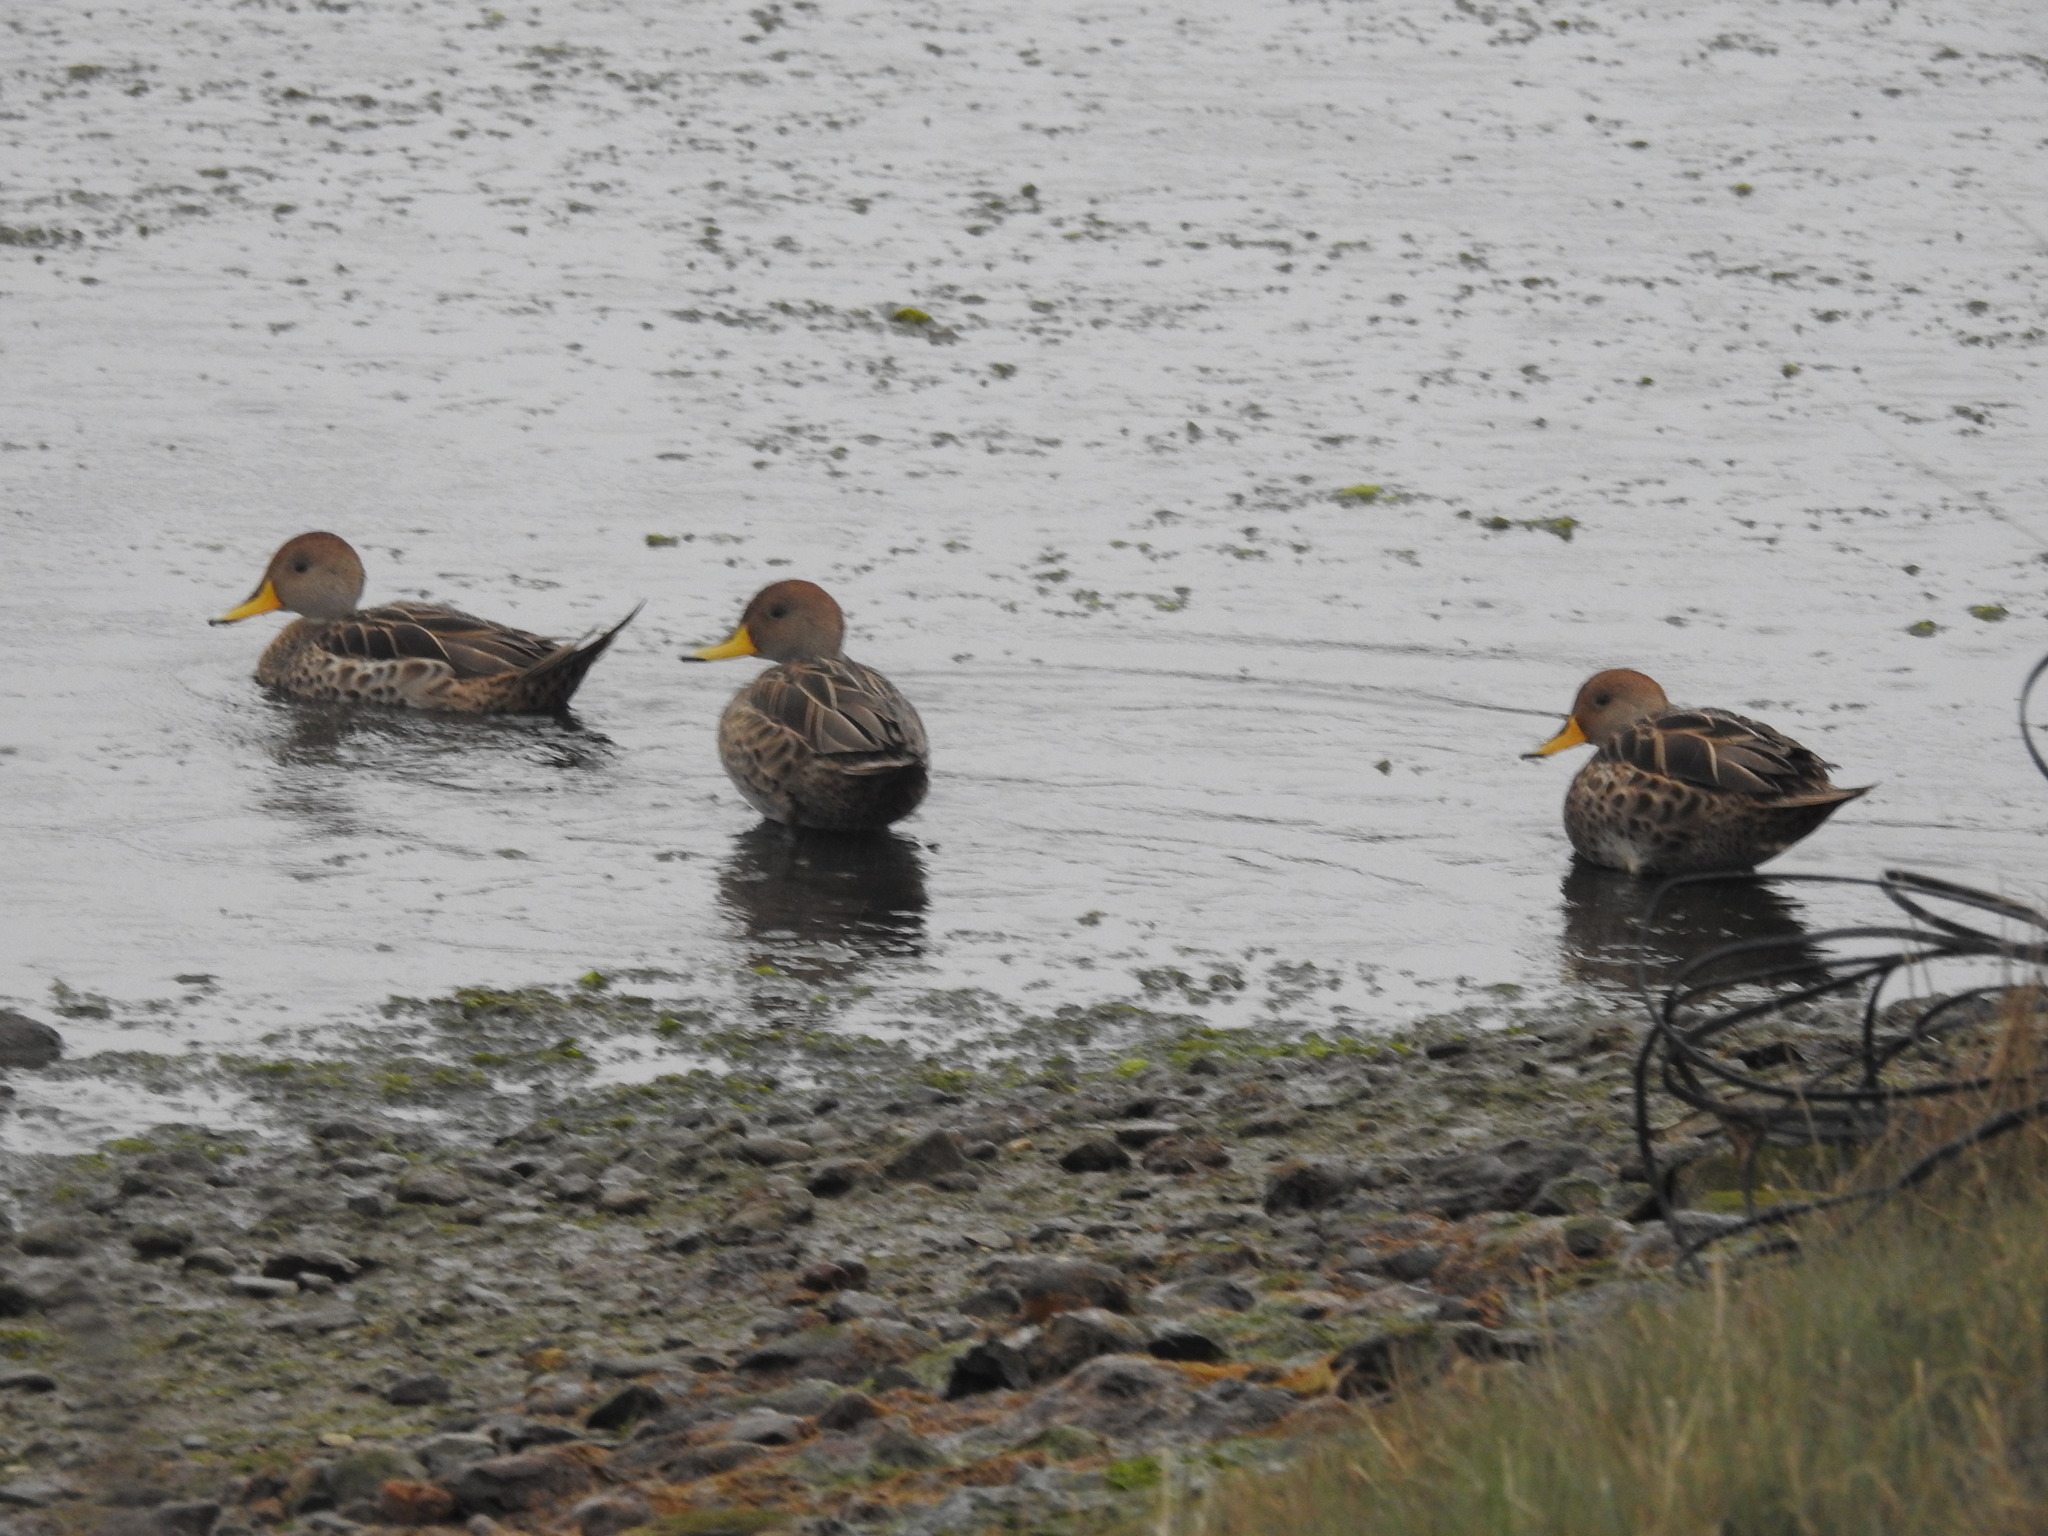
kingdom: Animalia
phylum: Chordata
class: Aves
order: Anseriformes
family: Anatidae
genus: Anas
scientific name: Anas georgica
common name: Yellow-billed pintail
